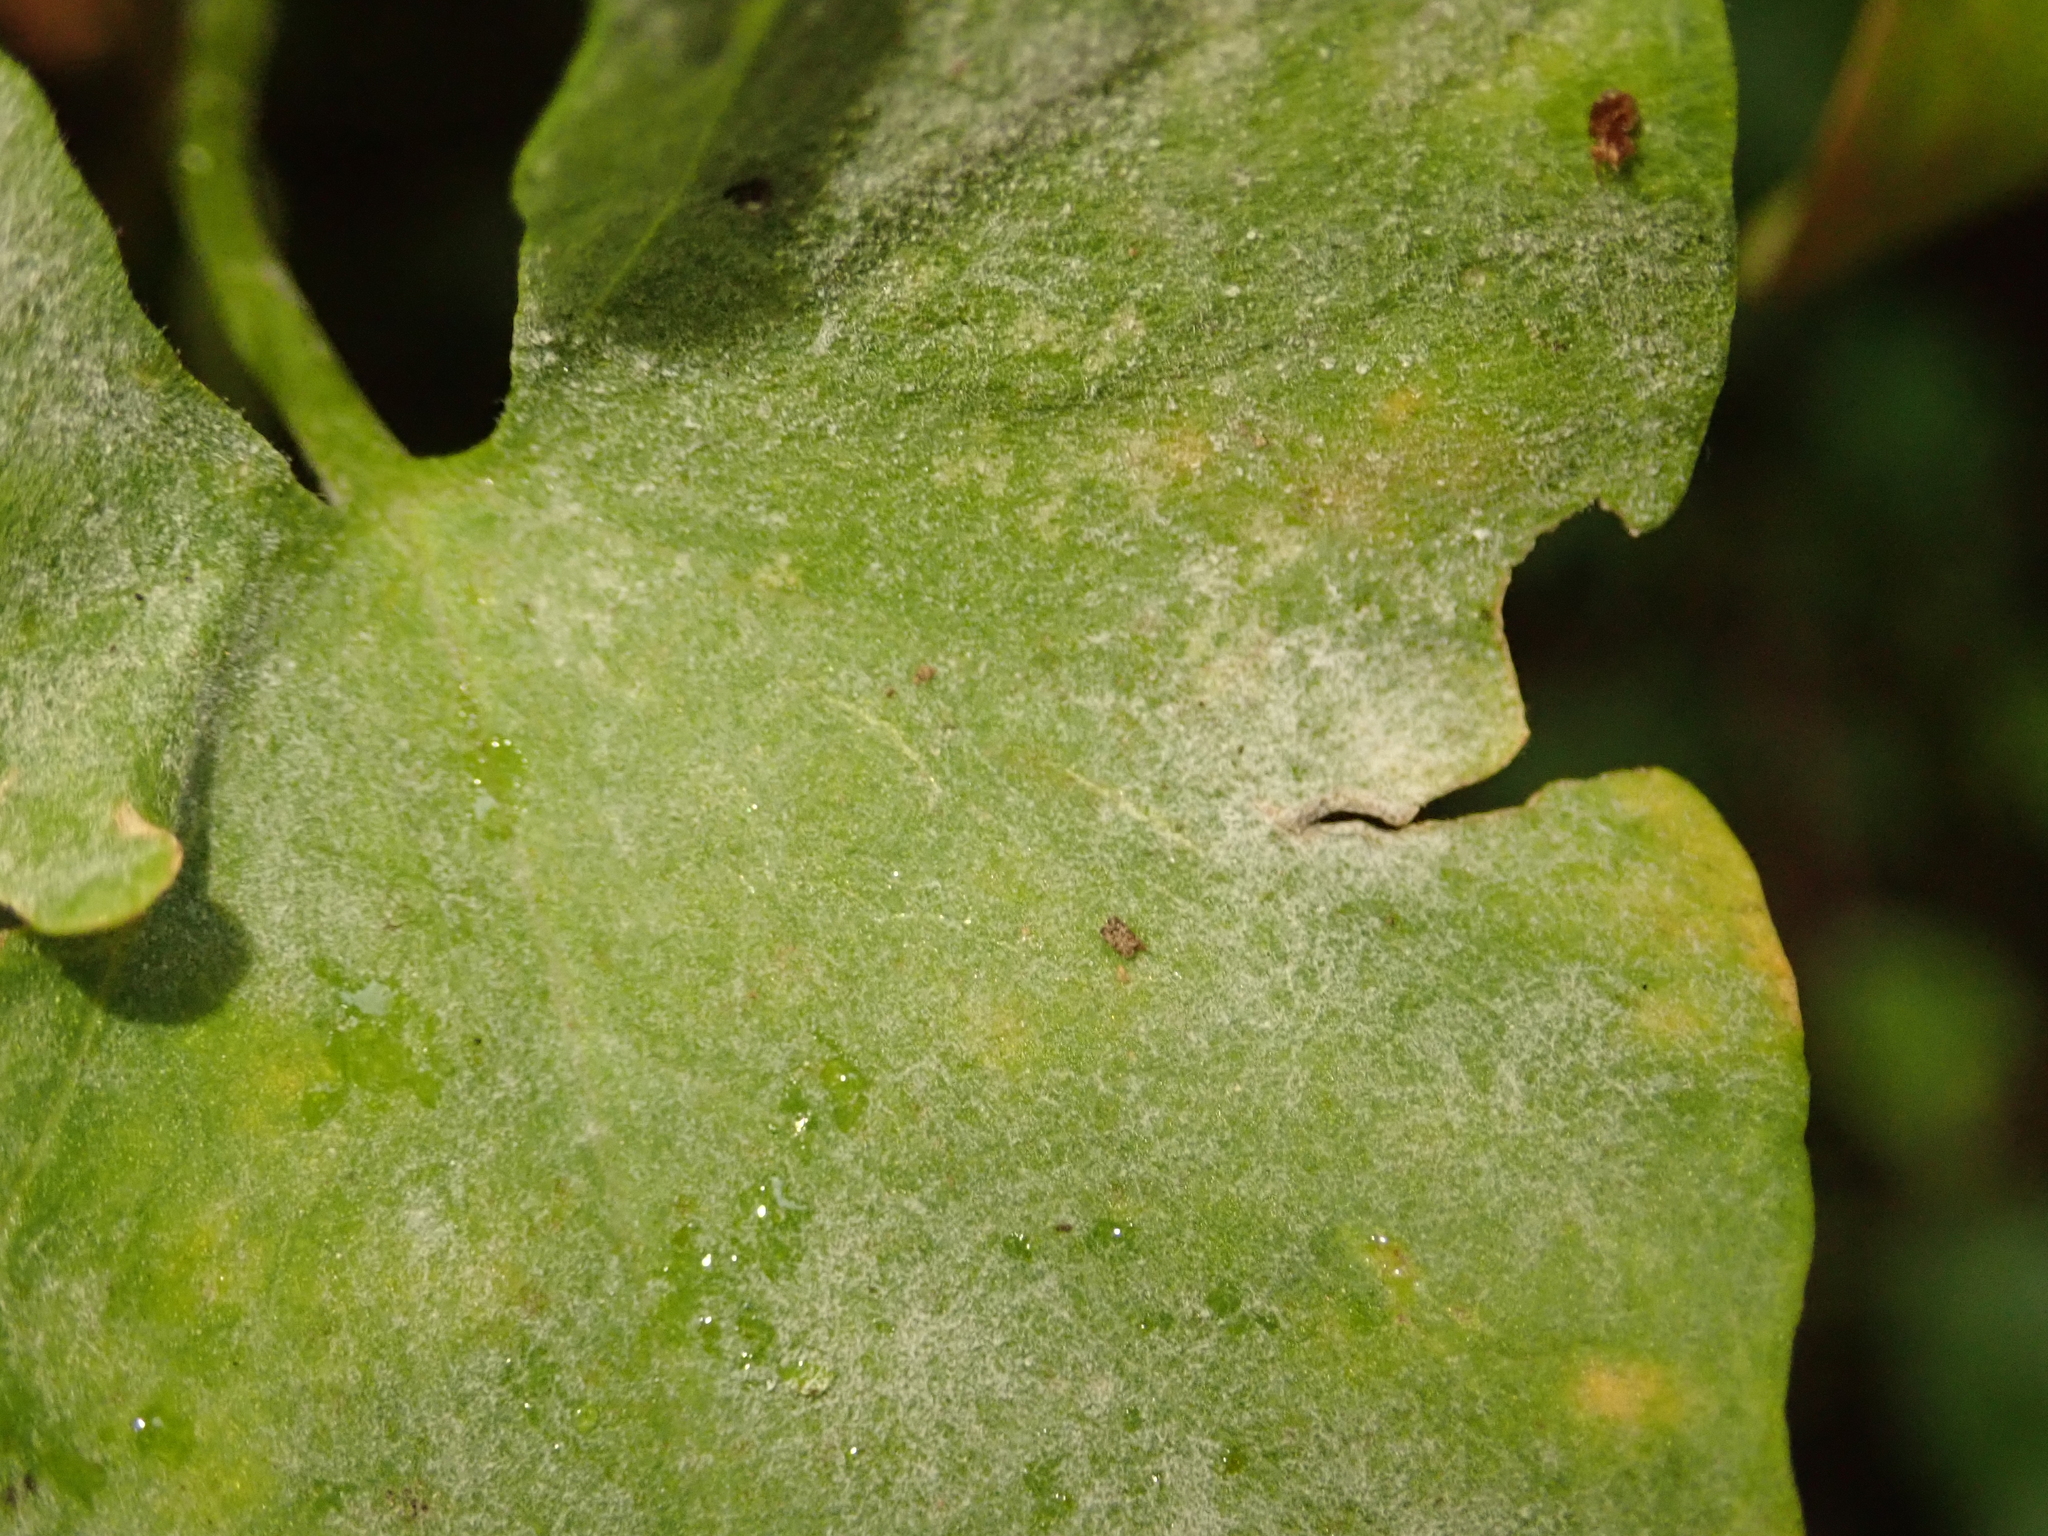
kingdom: Fungi
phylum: Ascomycota
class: Leotiomycetes
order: Helotiales
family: Erysiphaceae
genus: Erysiphe
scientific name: Erysiphe convolvuli
